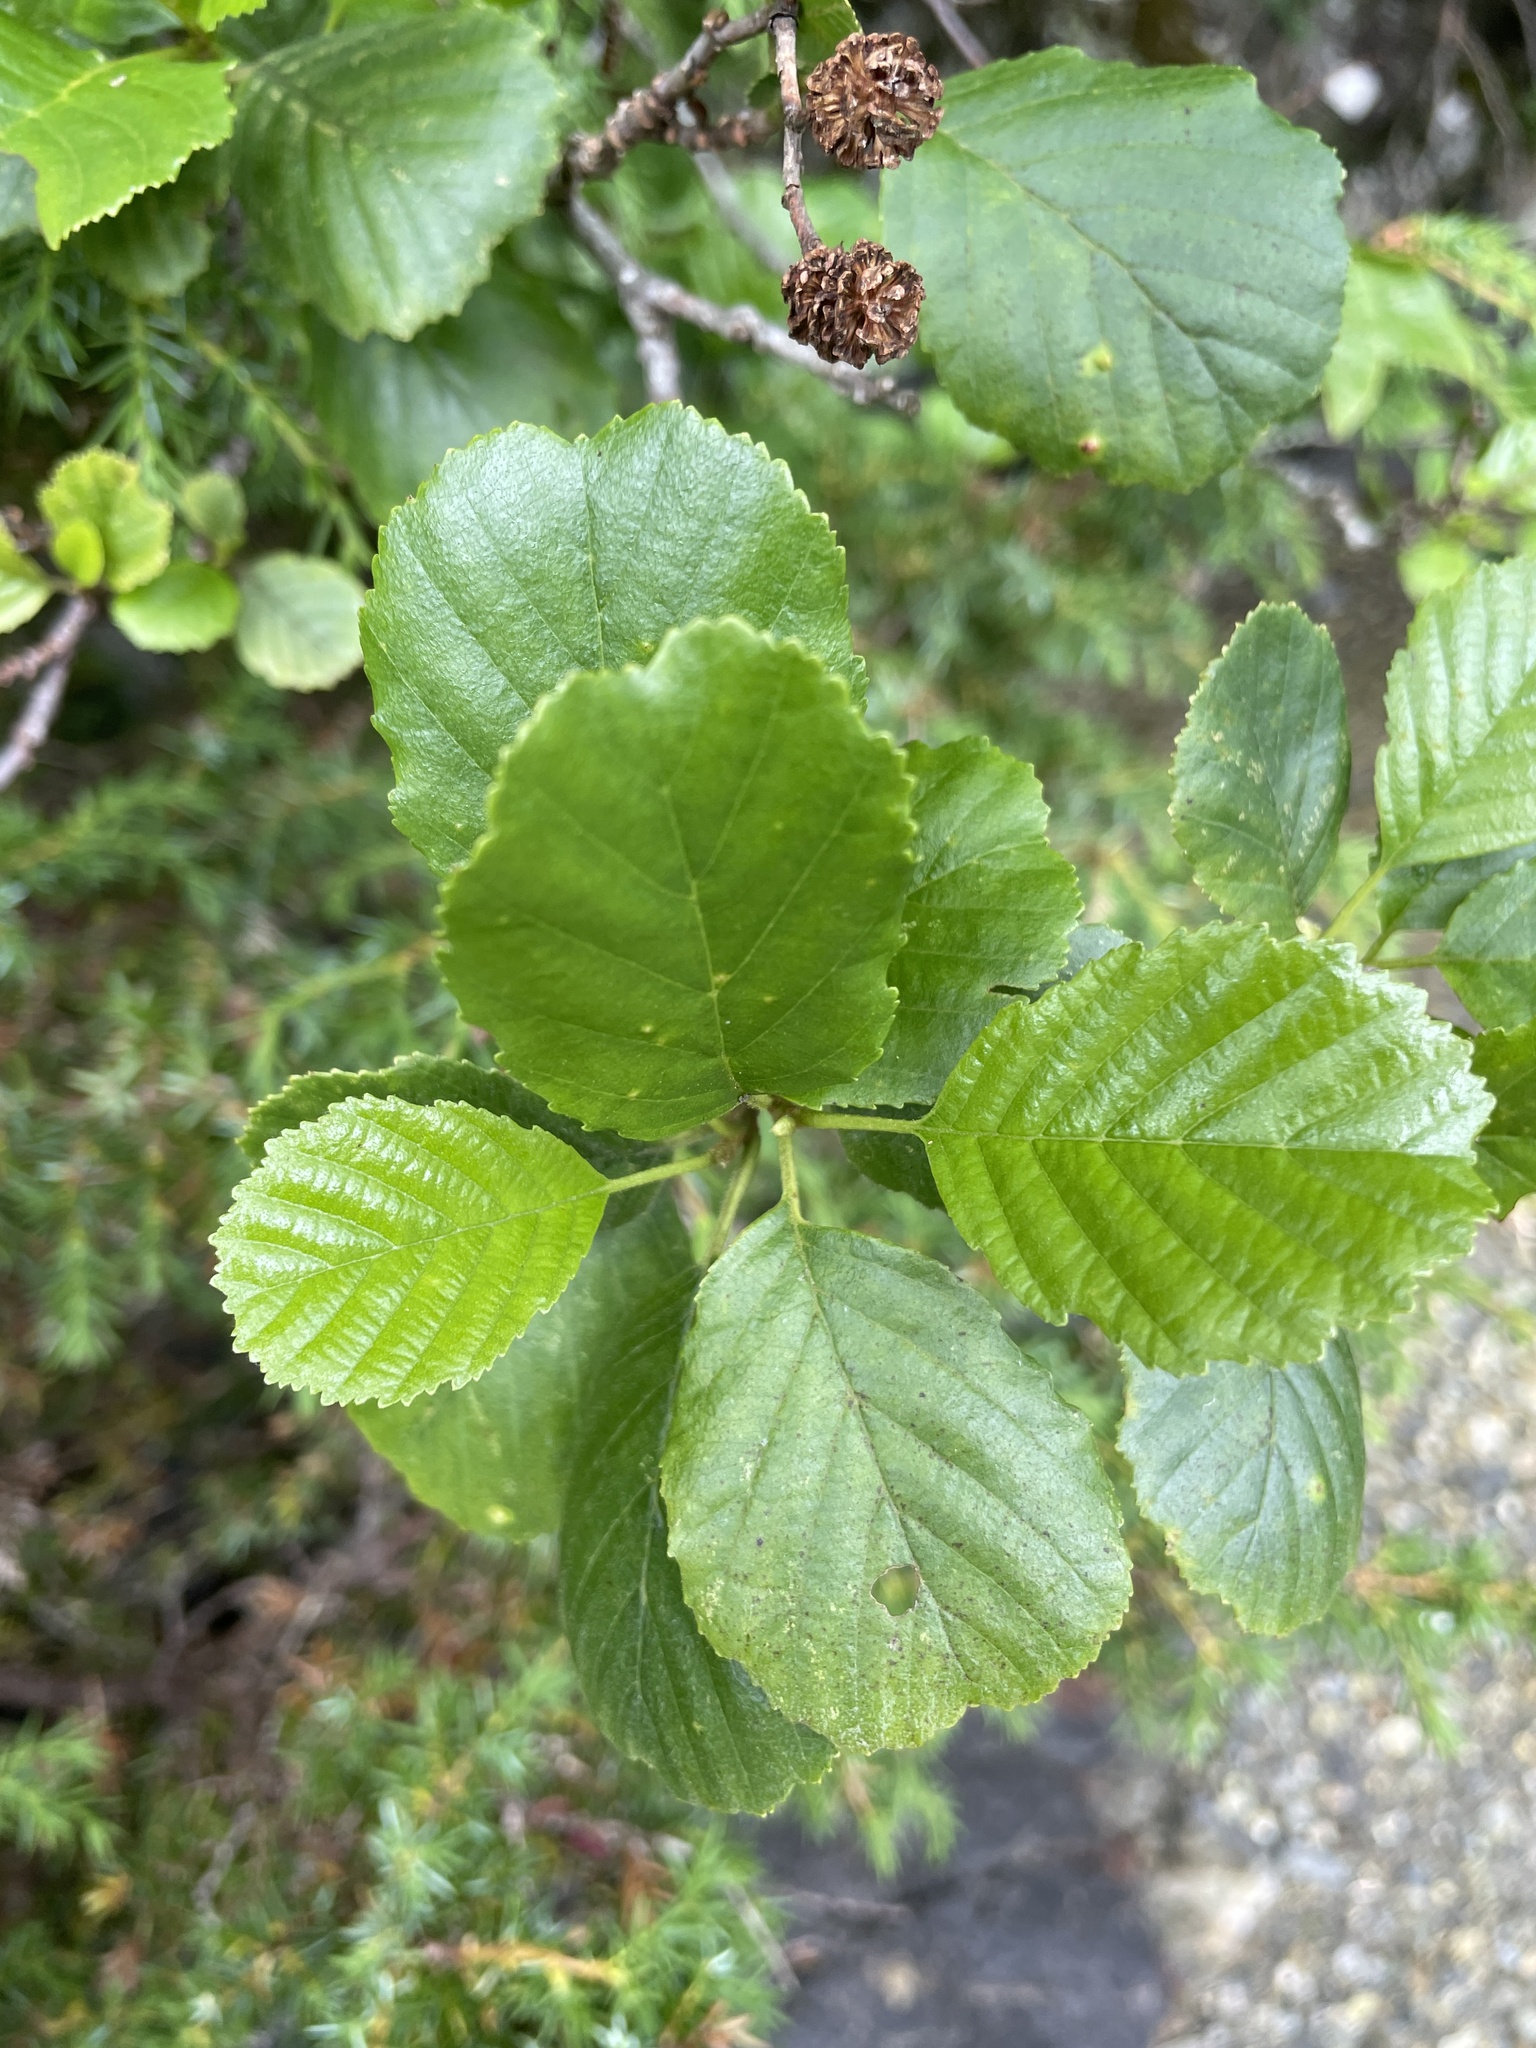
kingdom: Plantae
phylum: Tracheophyta
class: Magnoliopsida
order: Fagales
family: Betulaceae
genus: Alnus
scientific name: Alnus glutinosa
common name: Black alder
